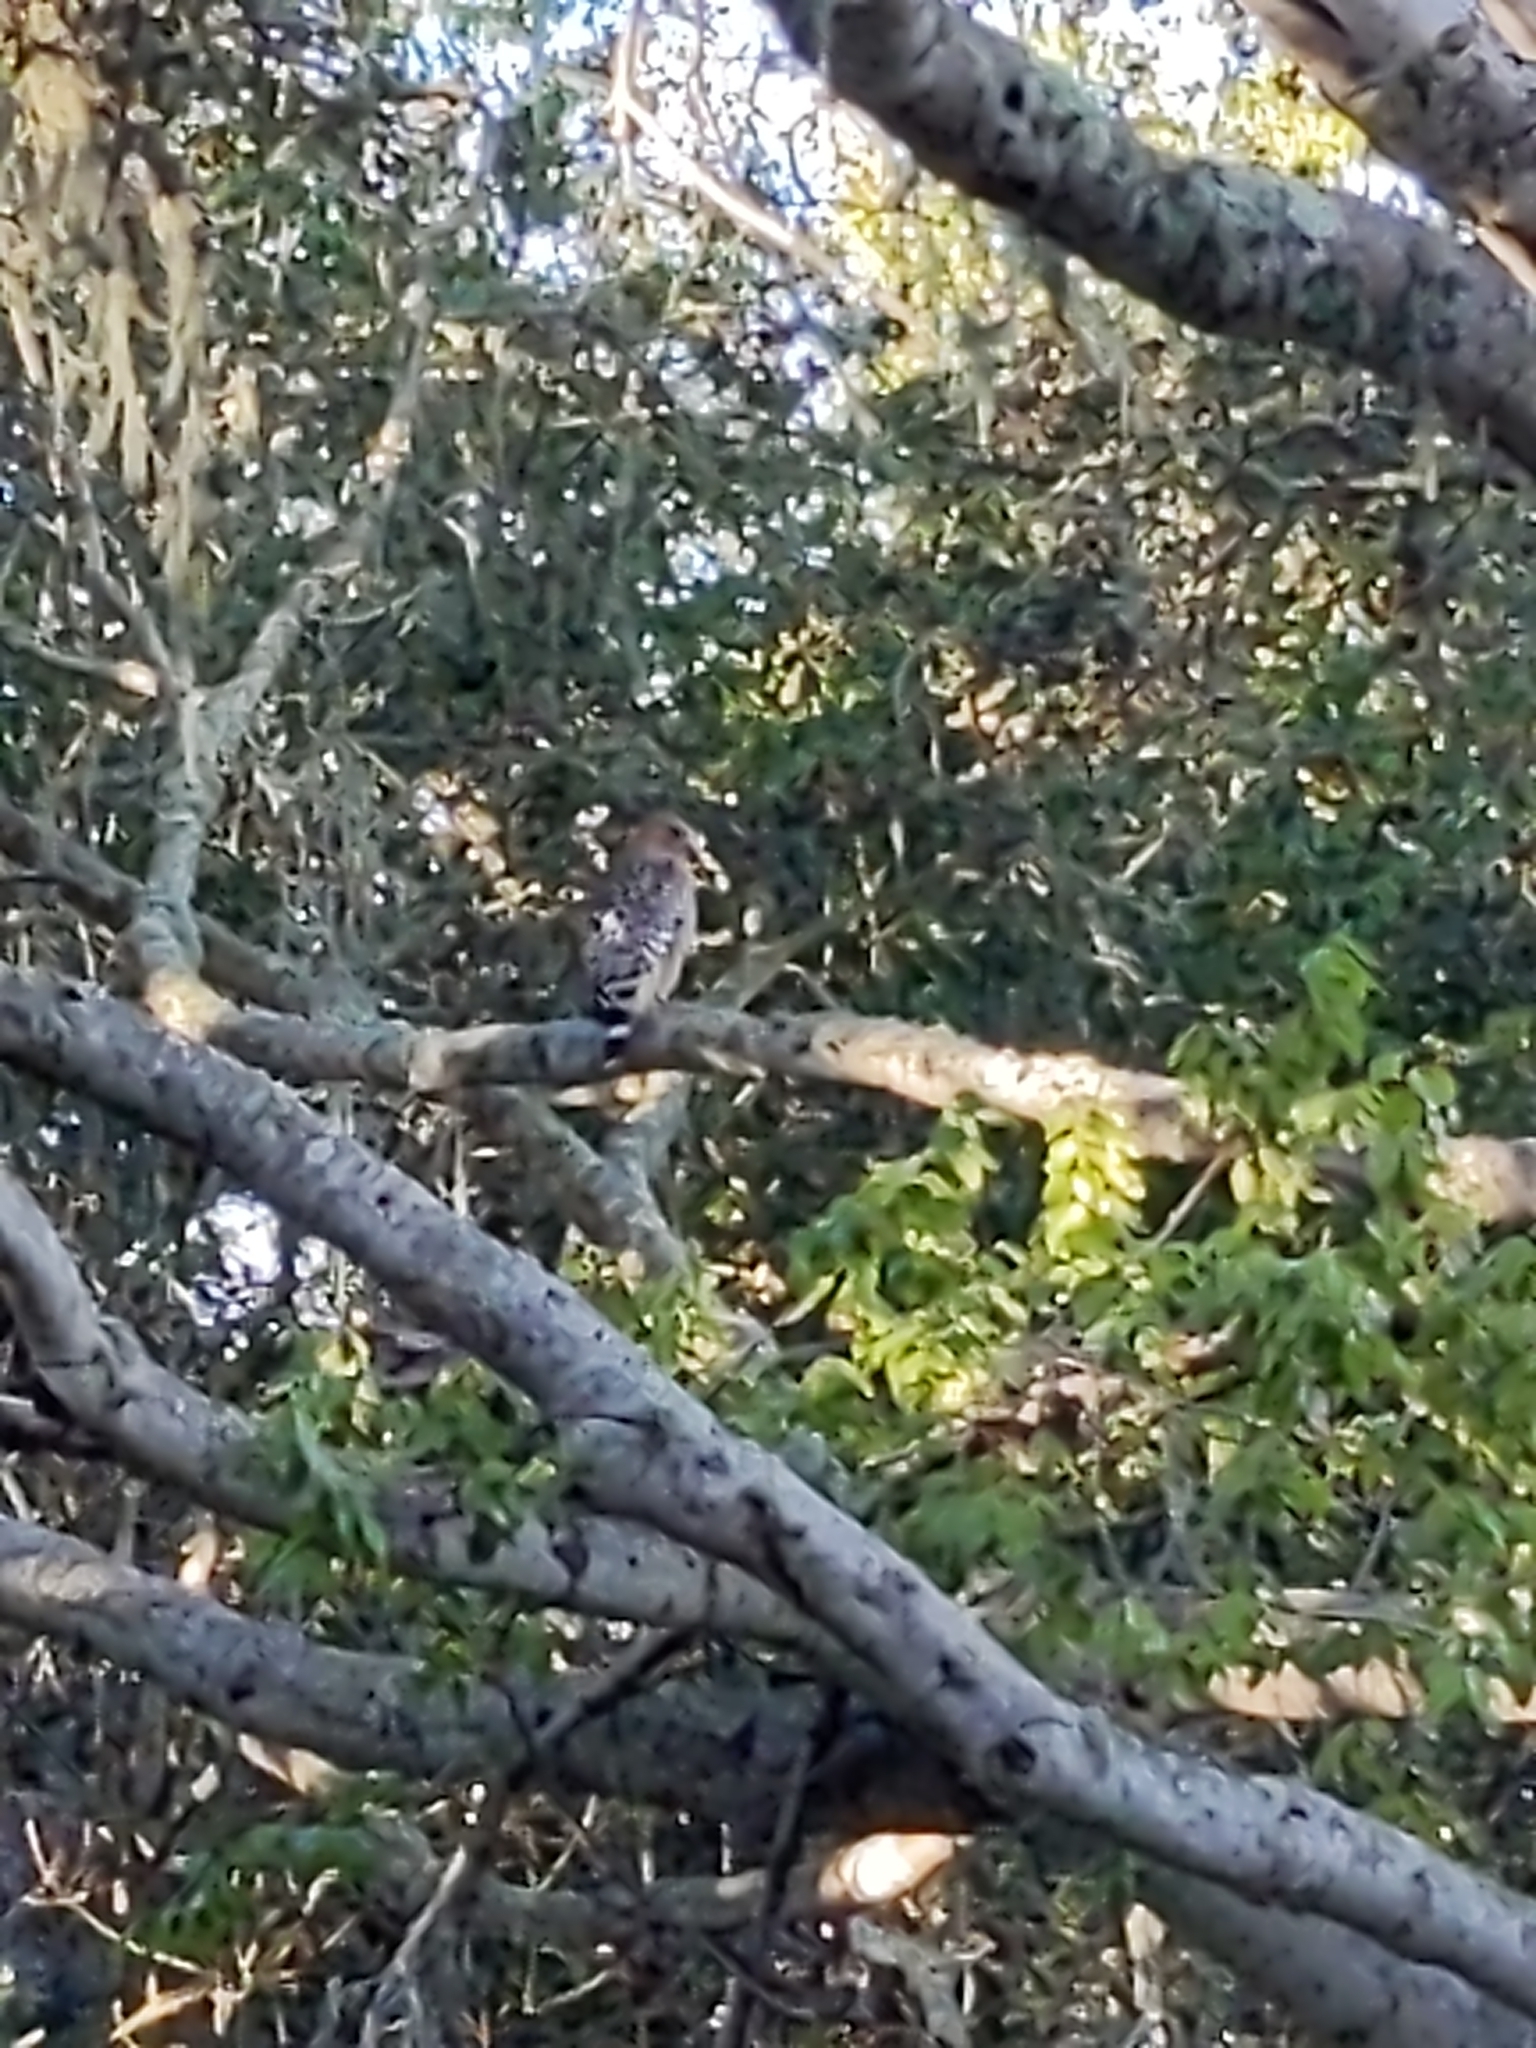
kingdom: Animalia
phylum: Chordata
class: Aves
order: Accipitriformes
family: Accipitridae
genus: Buteo
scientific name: Buteo lineatus
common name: Red-shouldered hawk
